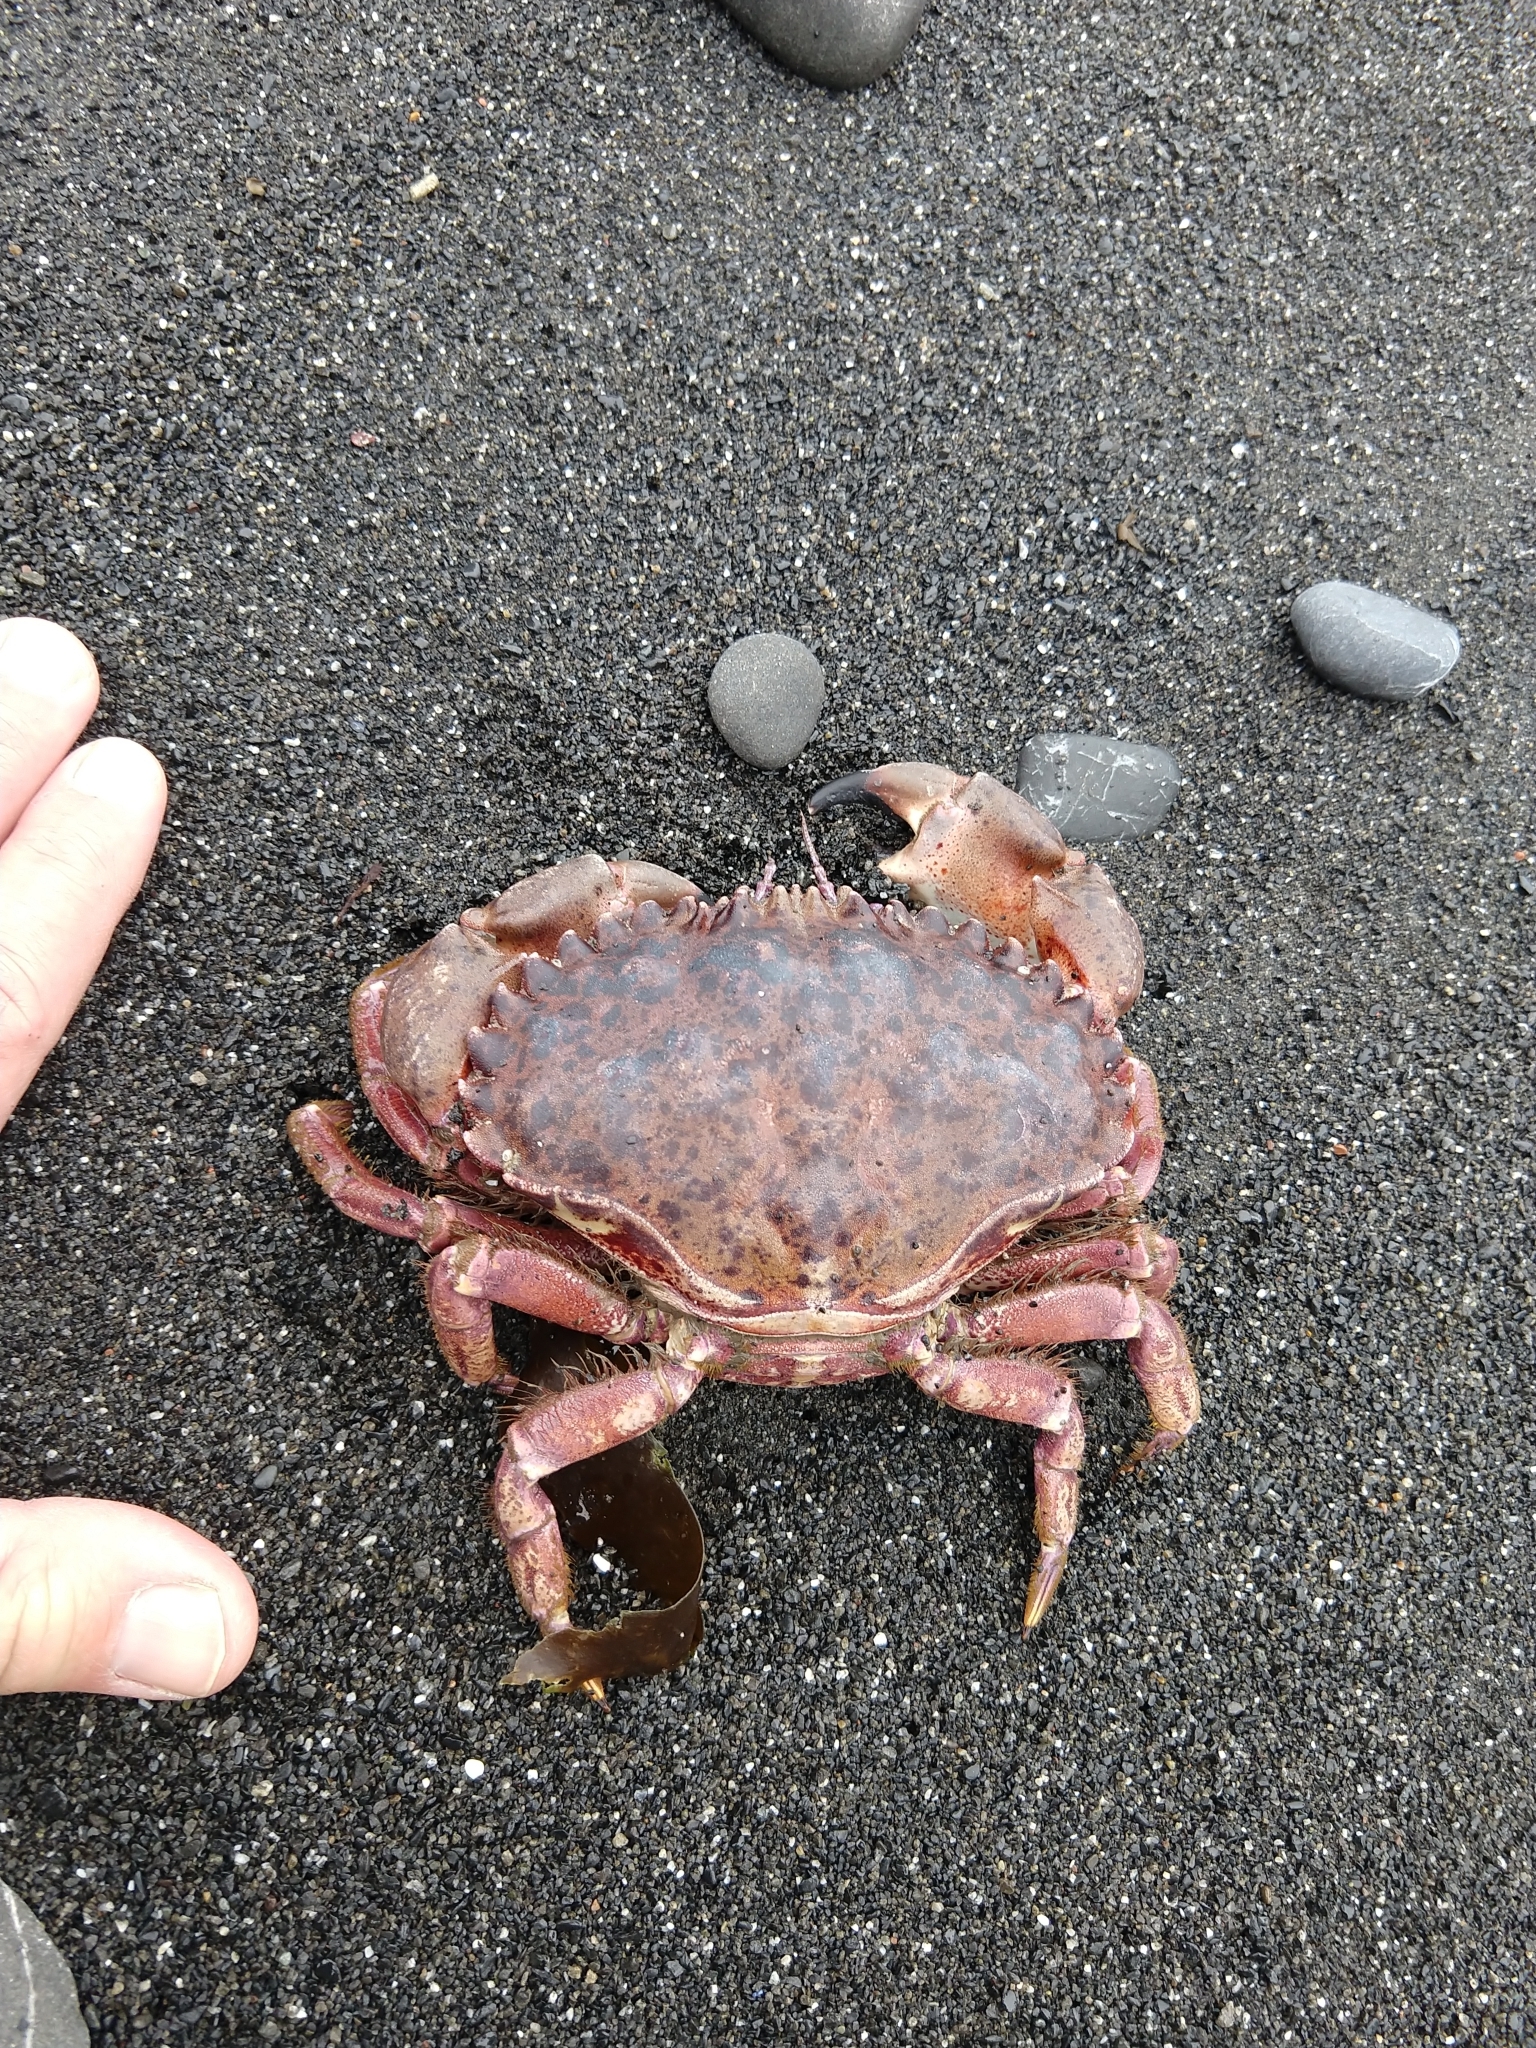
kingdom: Animalia
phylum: Arthropoda
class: Malacostraca
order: Decapoda
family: Cancridae
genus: Romaleon
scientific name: Romaleon antennarium
